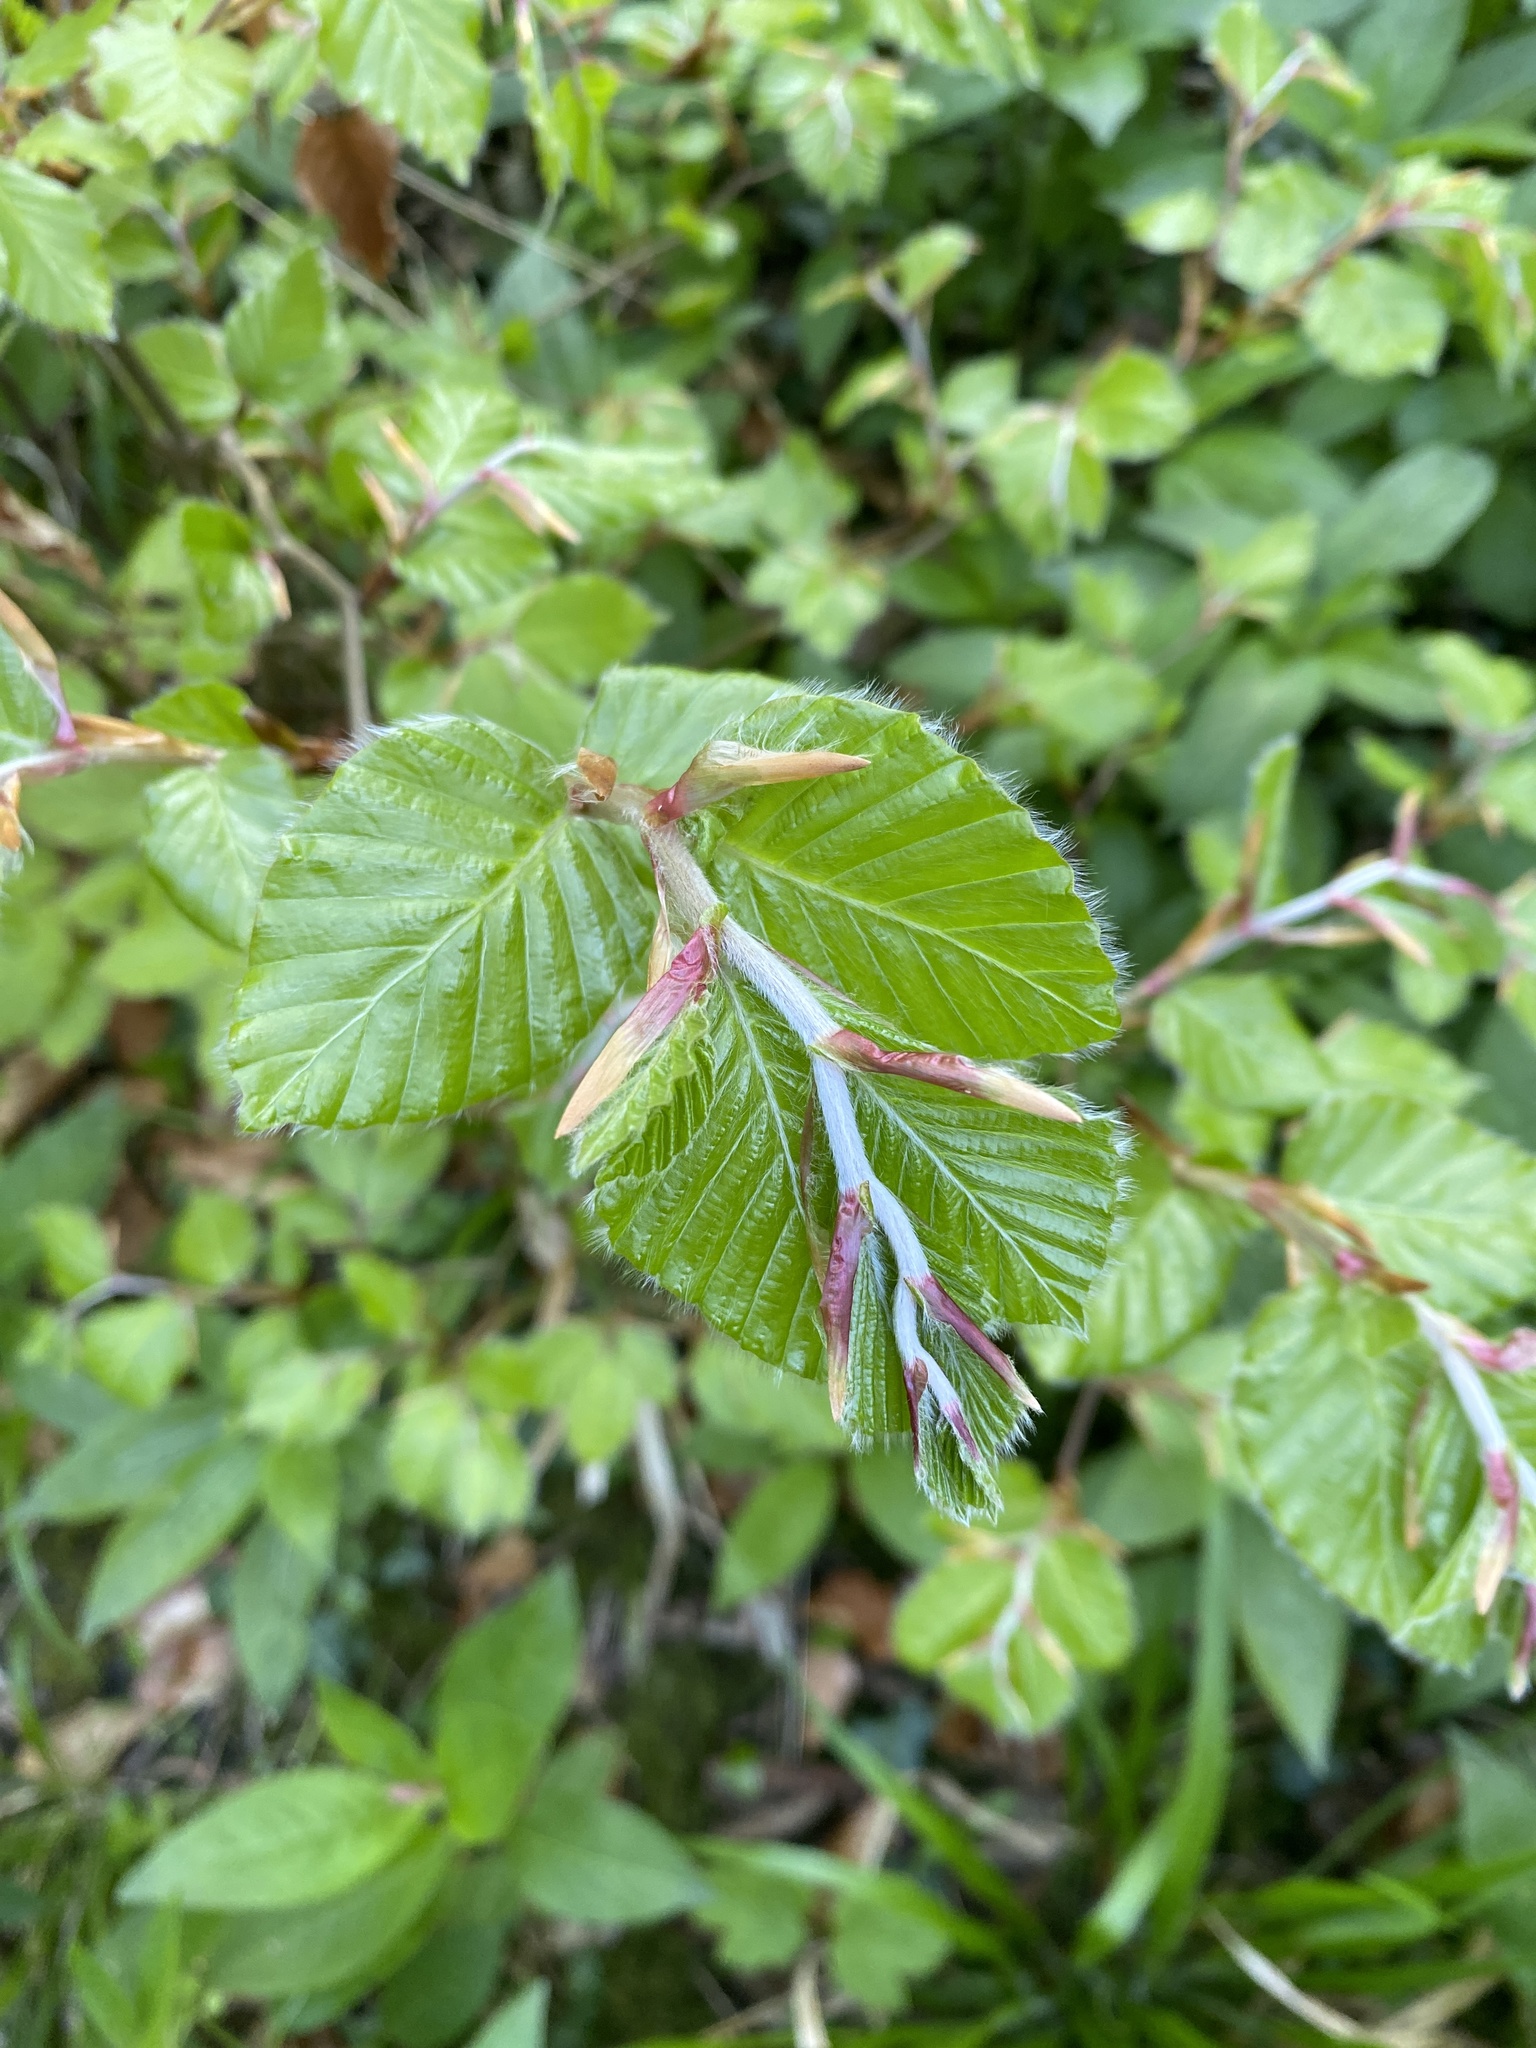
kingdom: Plantae
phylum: Tracheophyta
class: Magnoliopsida
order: Fagales
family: Fagaceae
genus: Fagus
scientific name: Fagus sylvatica
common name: Beech
